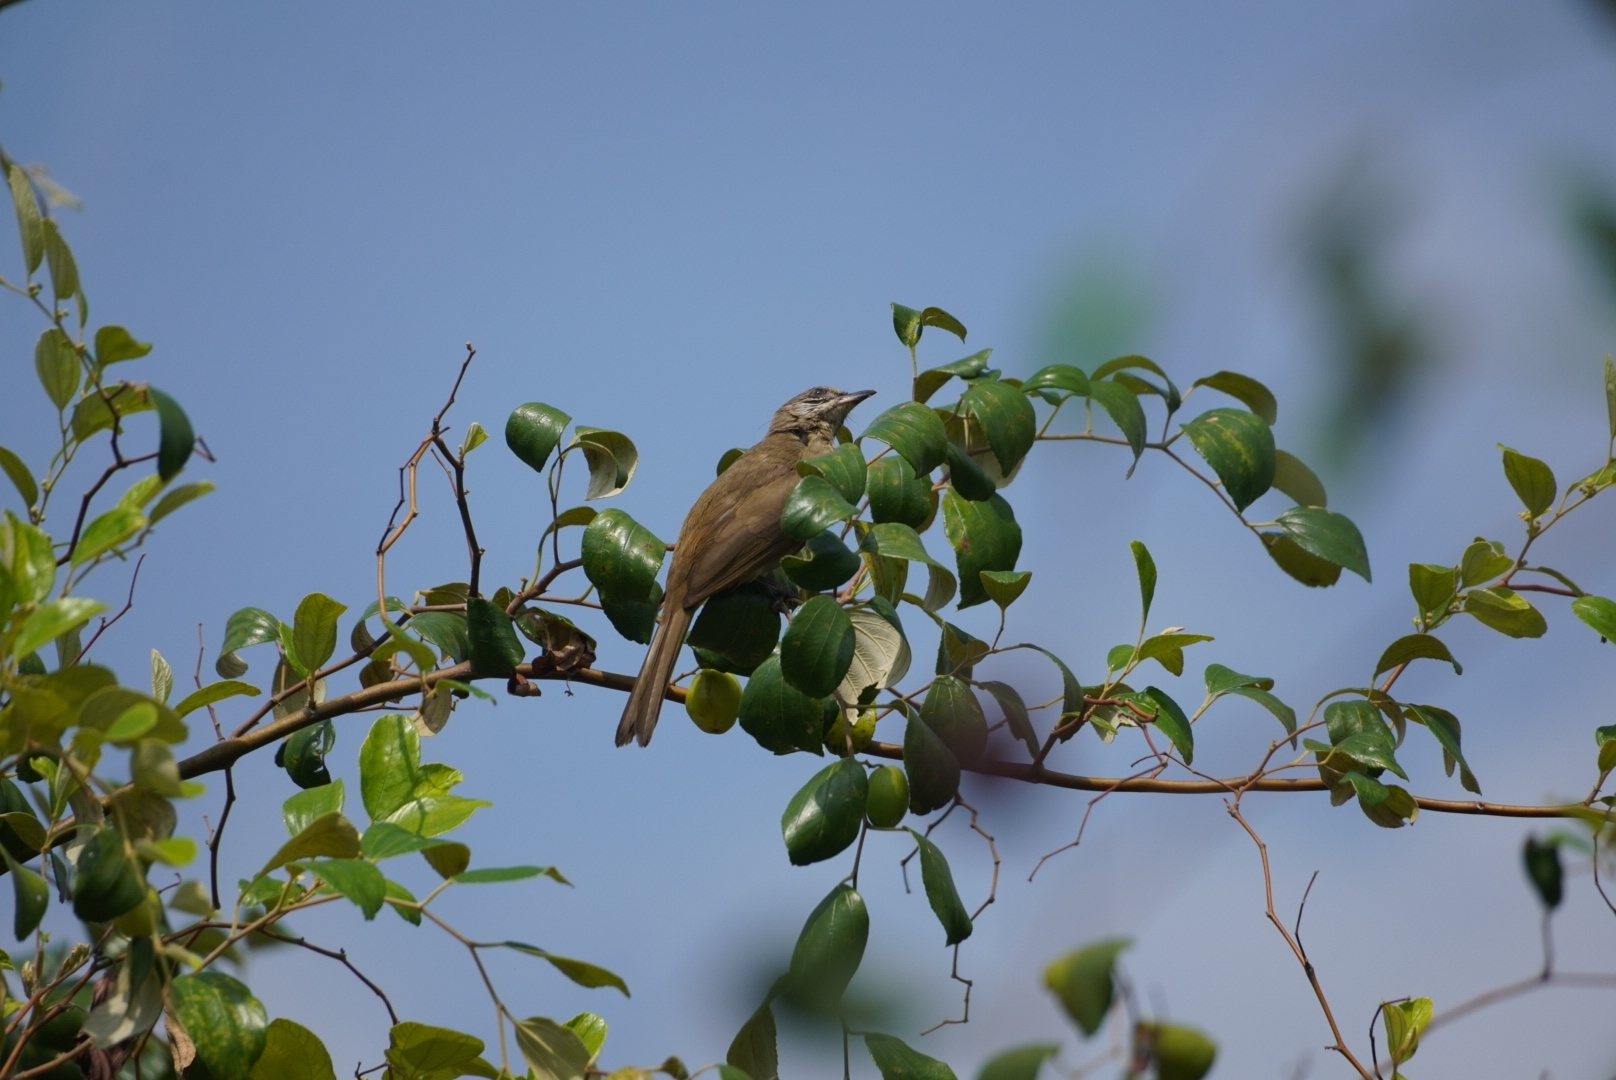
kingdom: Animalia
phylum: Chordata
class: Aves
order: Passeriformes
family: Pycnonotidae
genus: Pycnonotus
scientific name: Pycnonotus blanfordi
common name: Streak-eared bulbul
